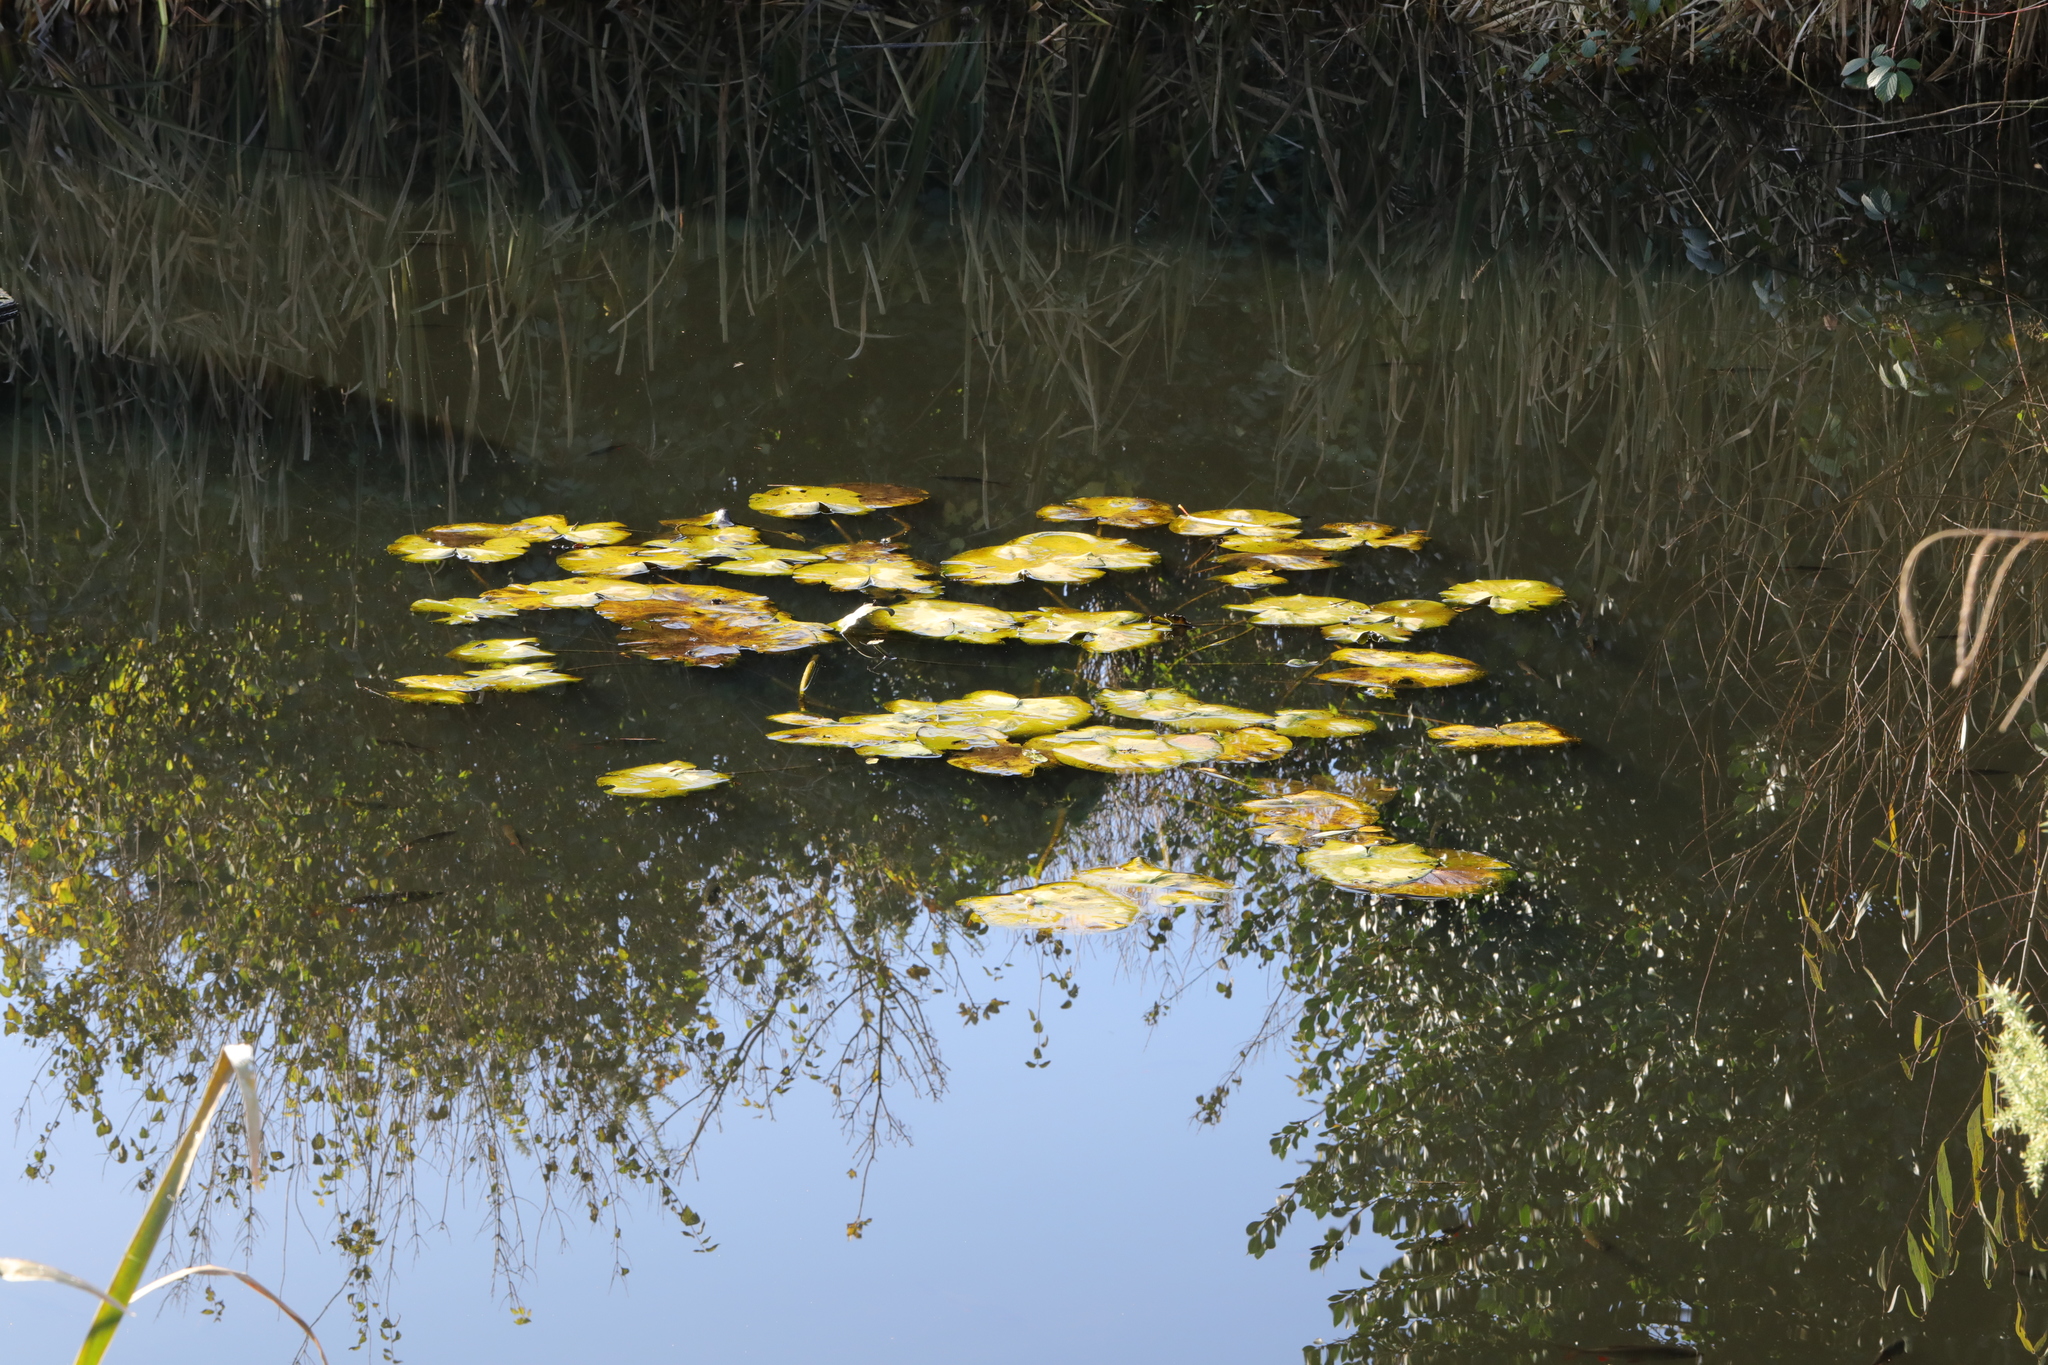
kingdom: Plantae
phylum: Tracheophyta
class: Magnoliopsida
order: Nymphaeales
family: Nymphaeaceae
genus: Nuphar
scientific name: Nuphar lutea
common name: Yellow water-lily
